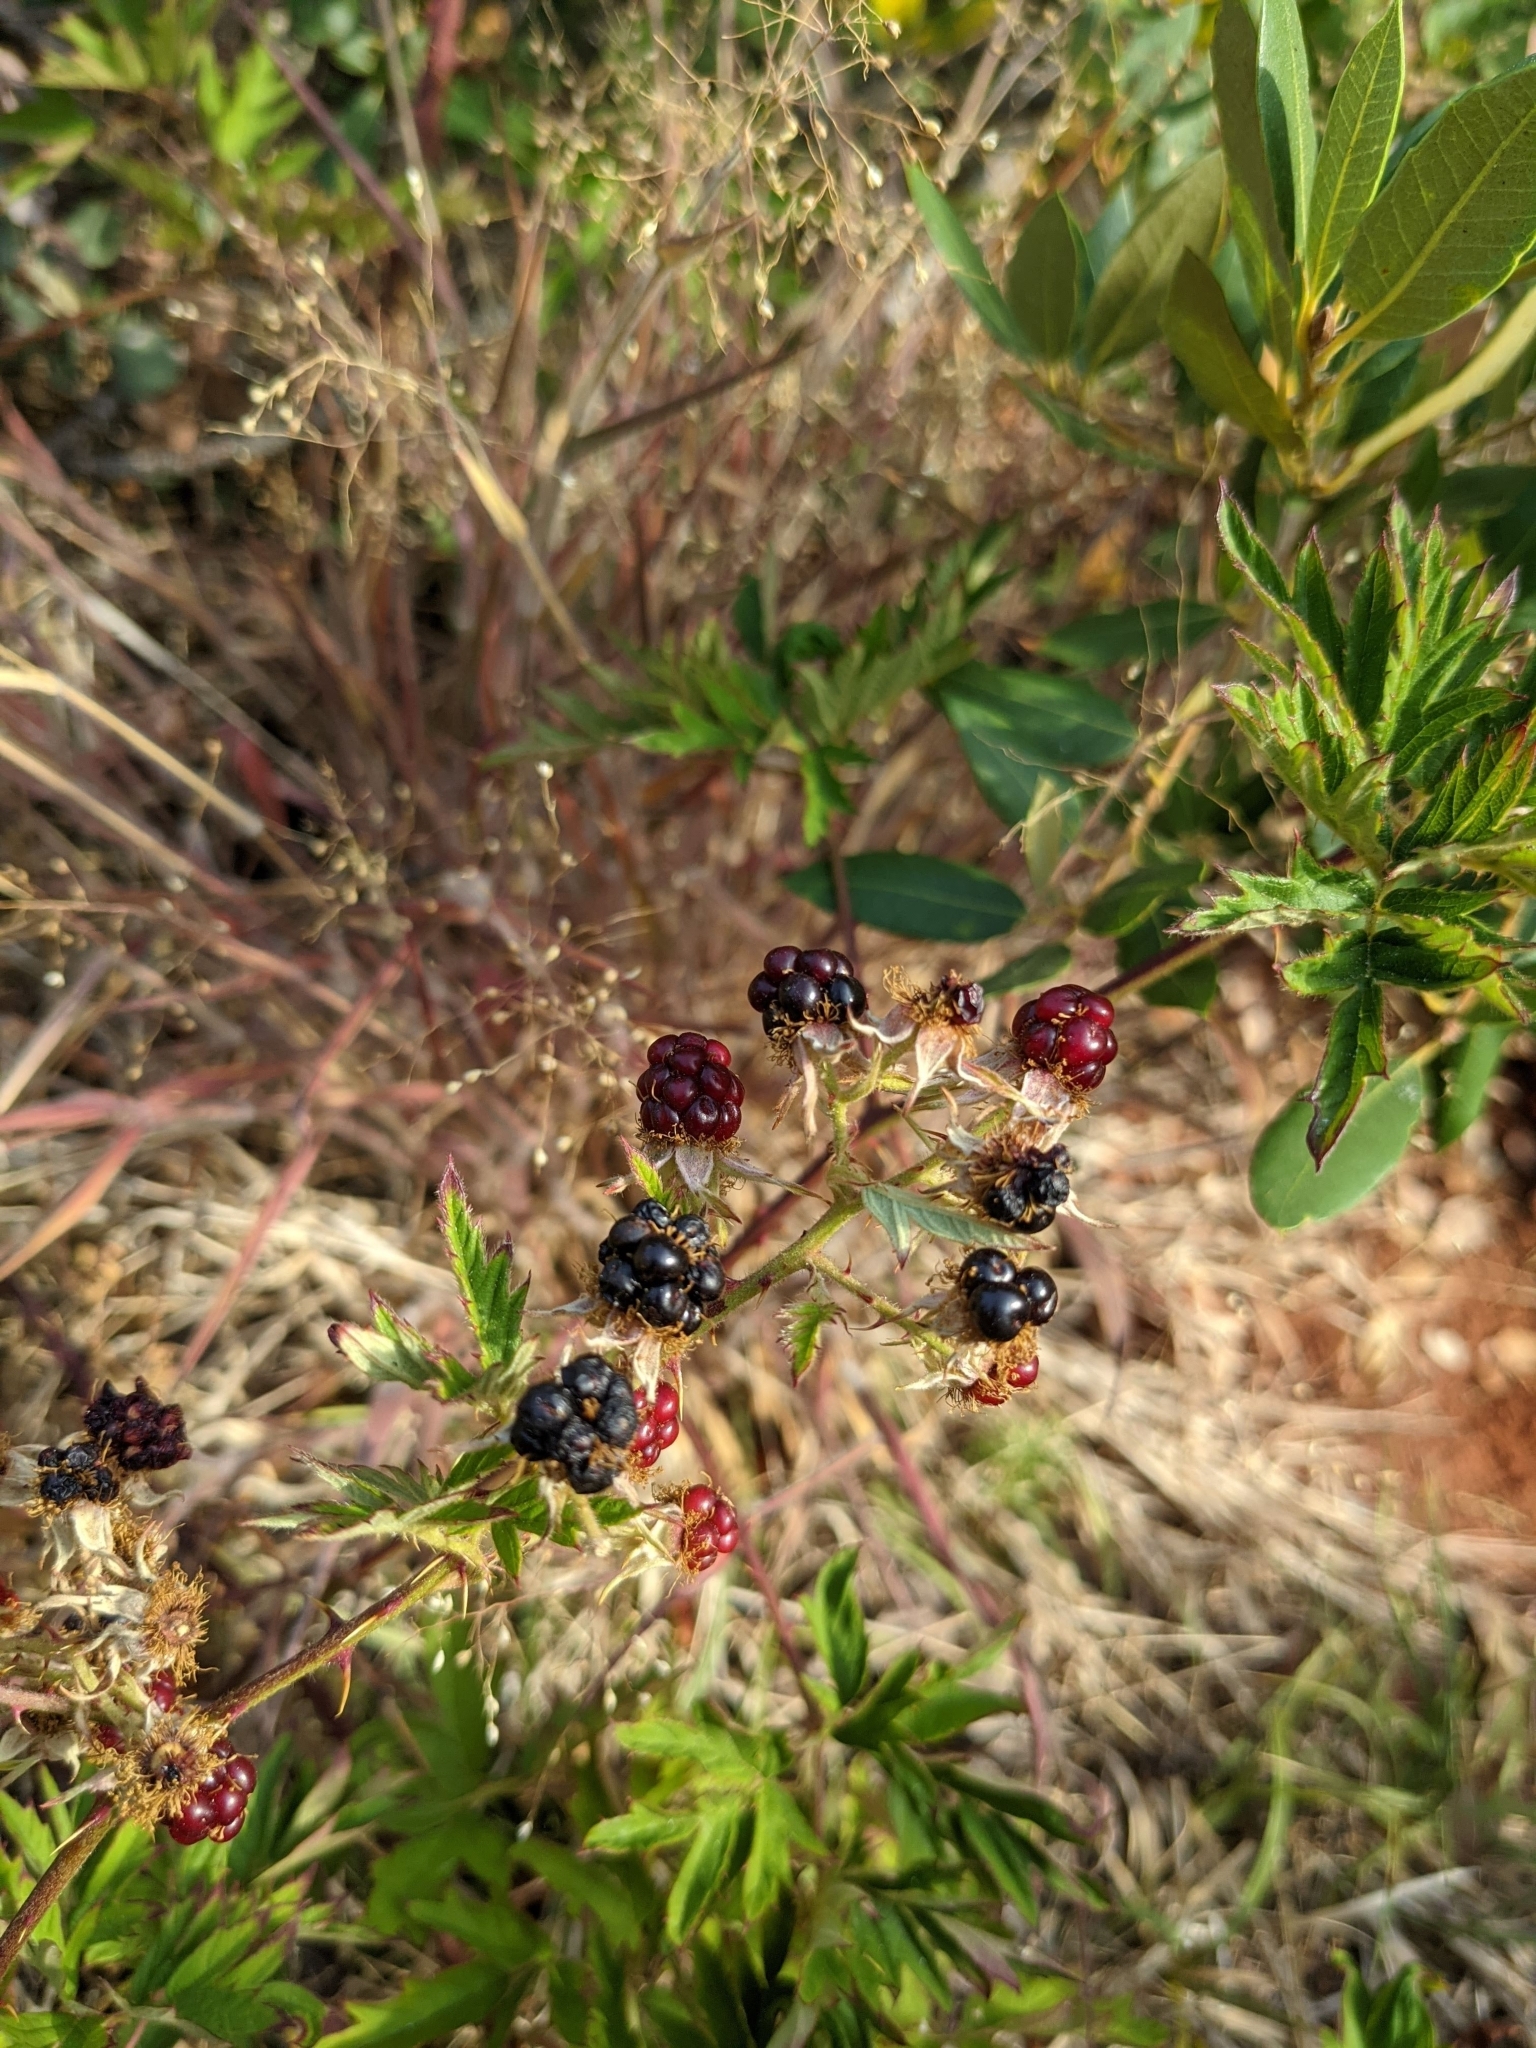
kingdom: Plantae
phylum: Tracheophyta
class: Magnoliopsida
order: Rosales
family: Rosaceae
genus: Rubus
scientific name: Rubus laciniatus
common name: Evergreen blackberry
